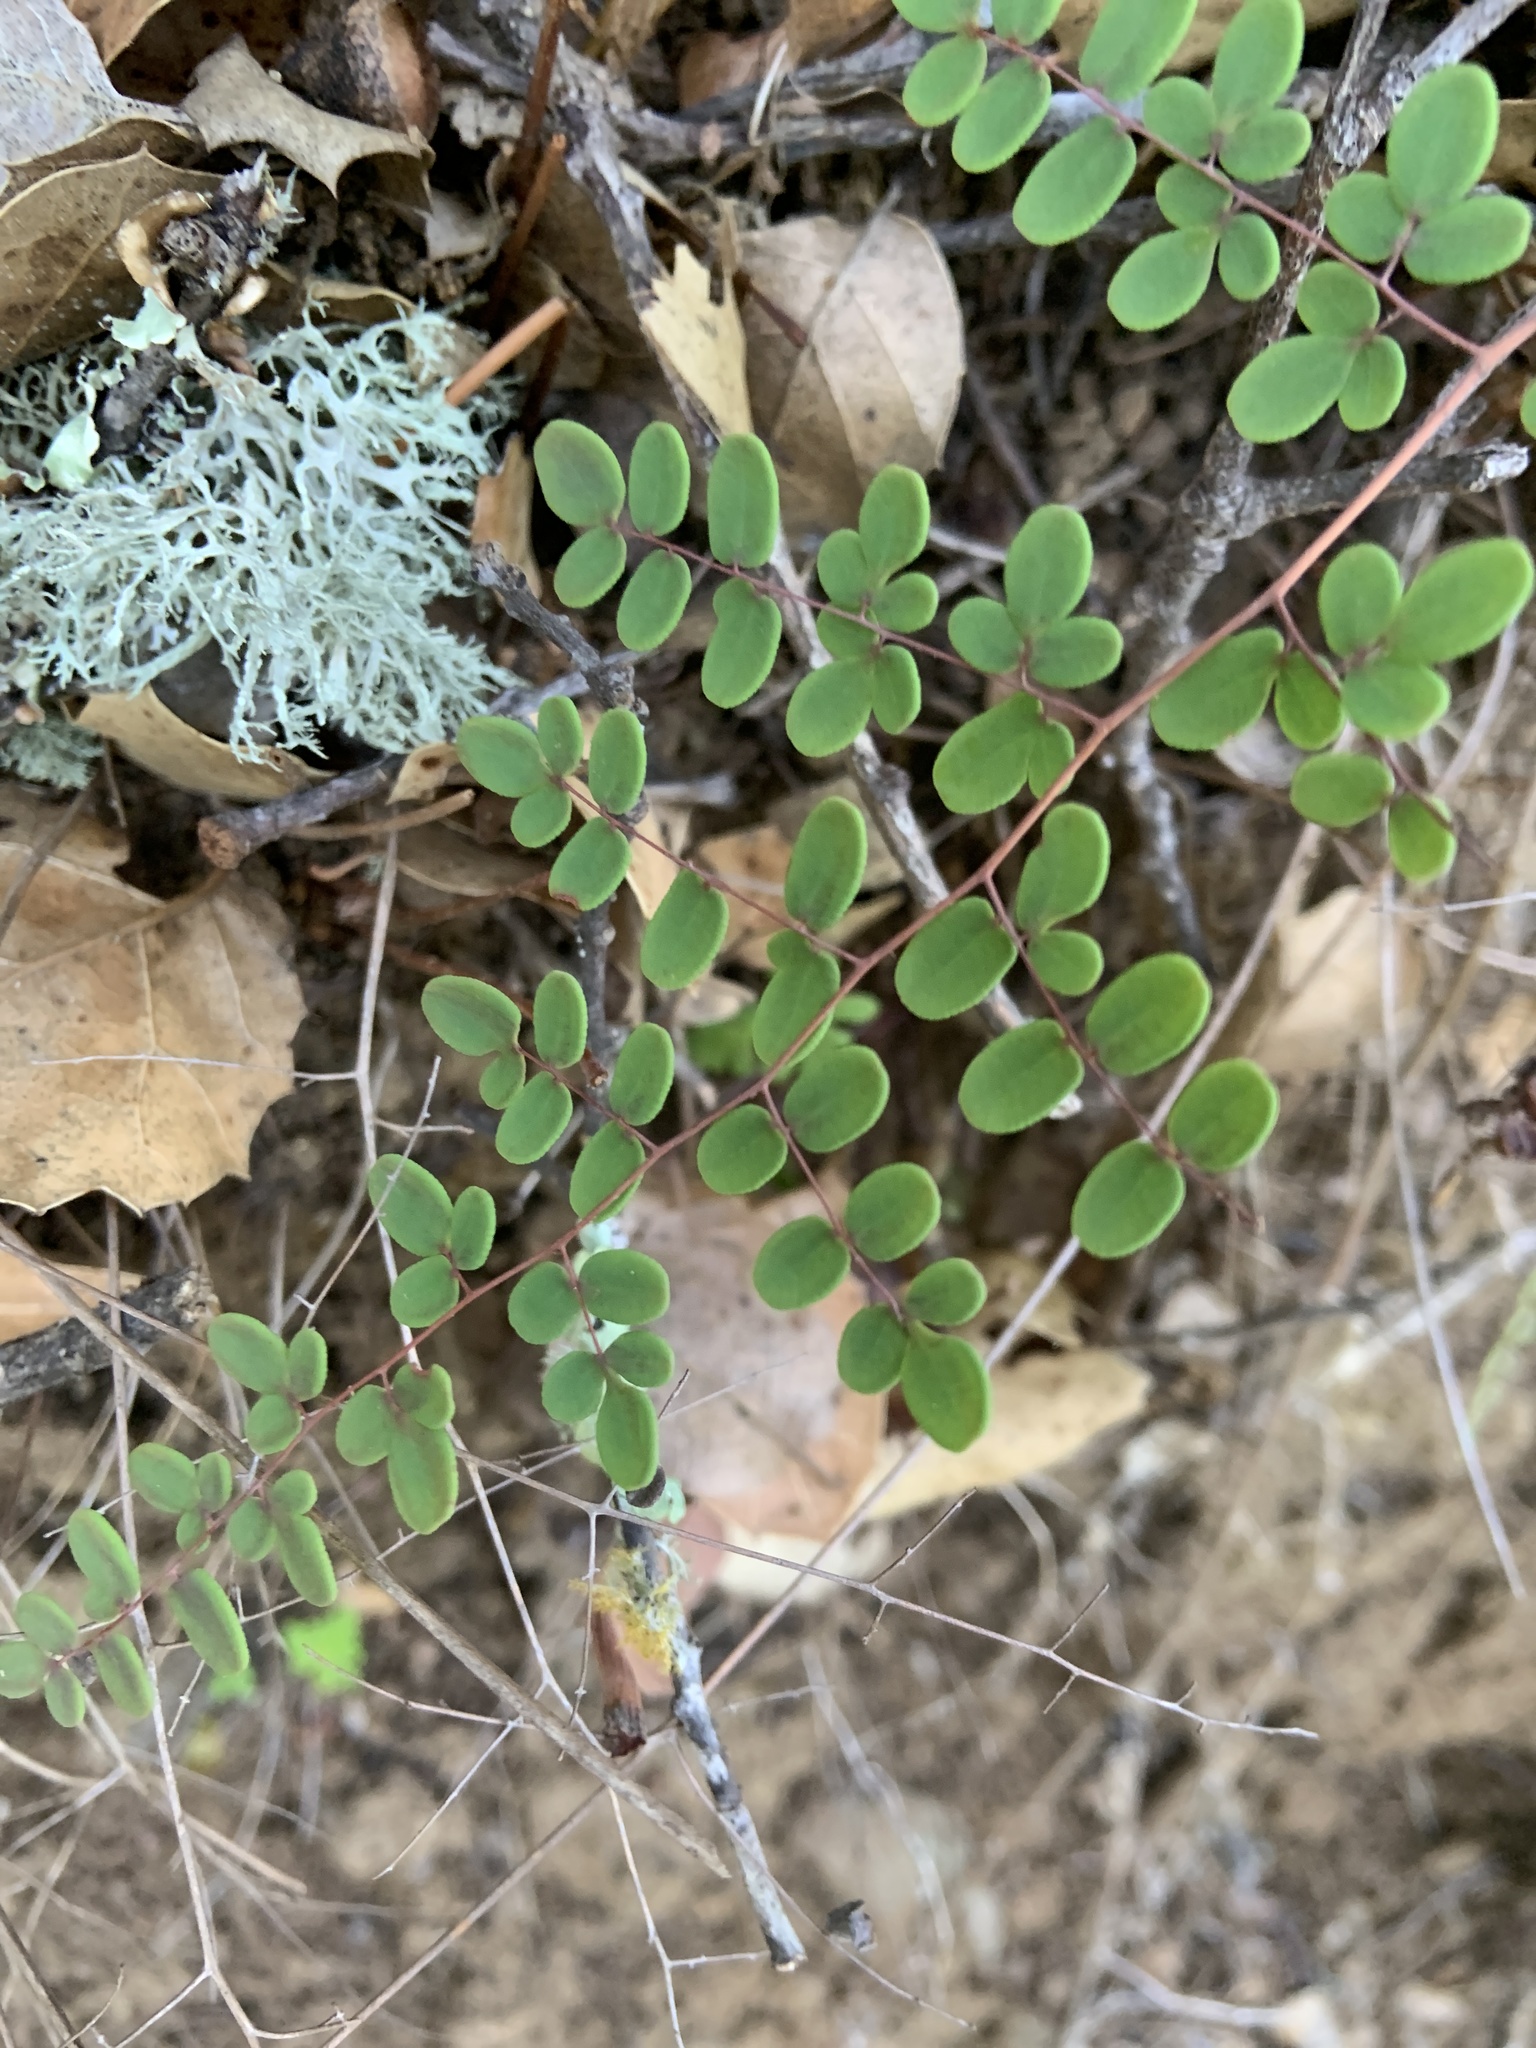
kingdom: Plantae
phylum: Tracheophyta
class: Polypodiopsida
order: Polypodiales
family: Pteridaceae
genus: Pellaea
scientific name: Pellaea andromedifolia
